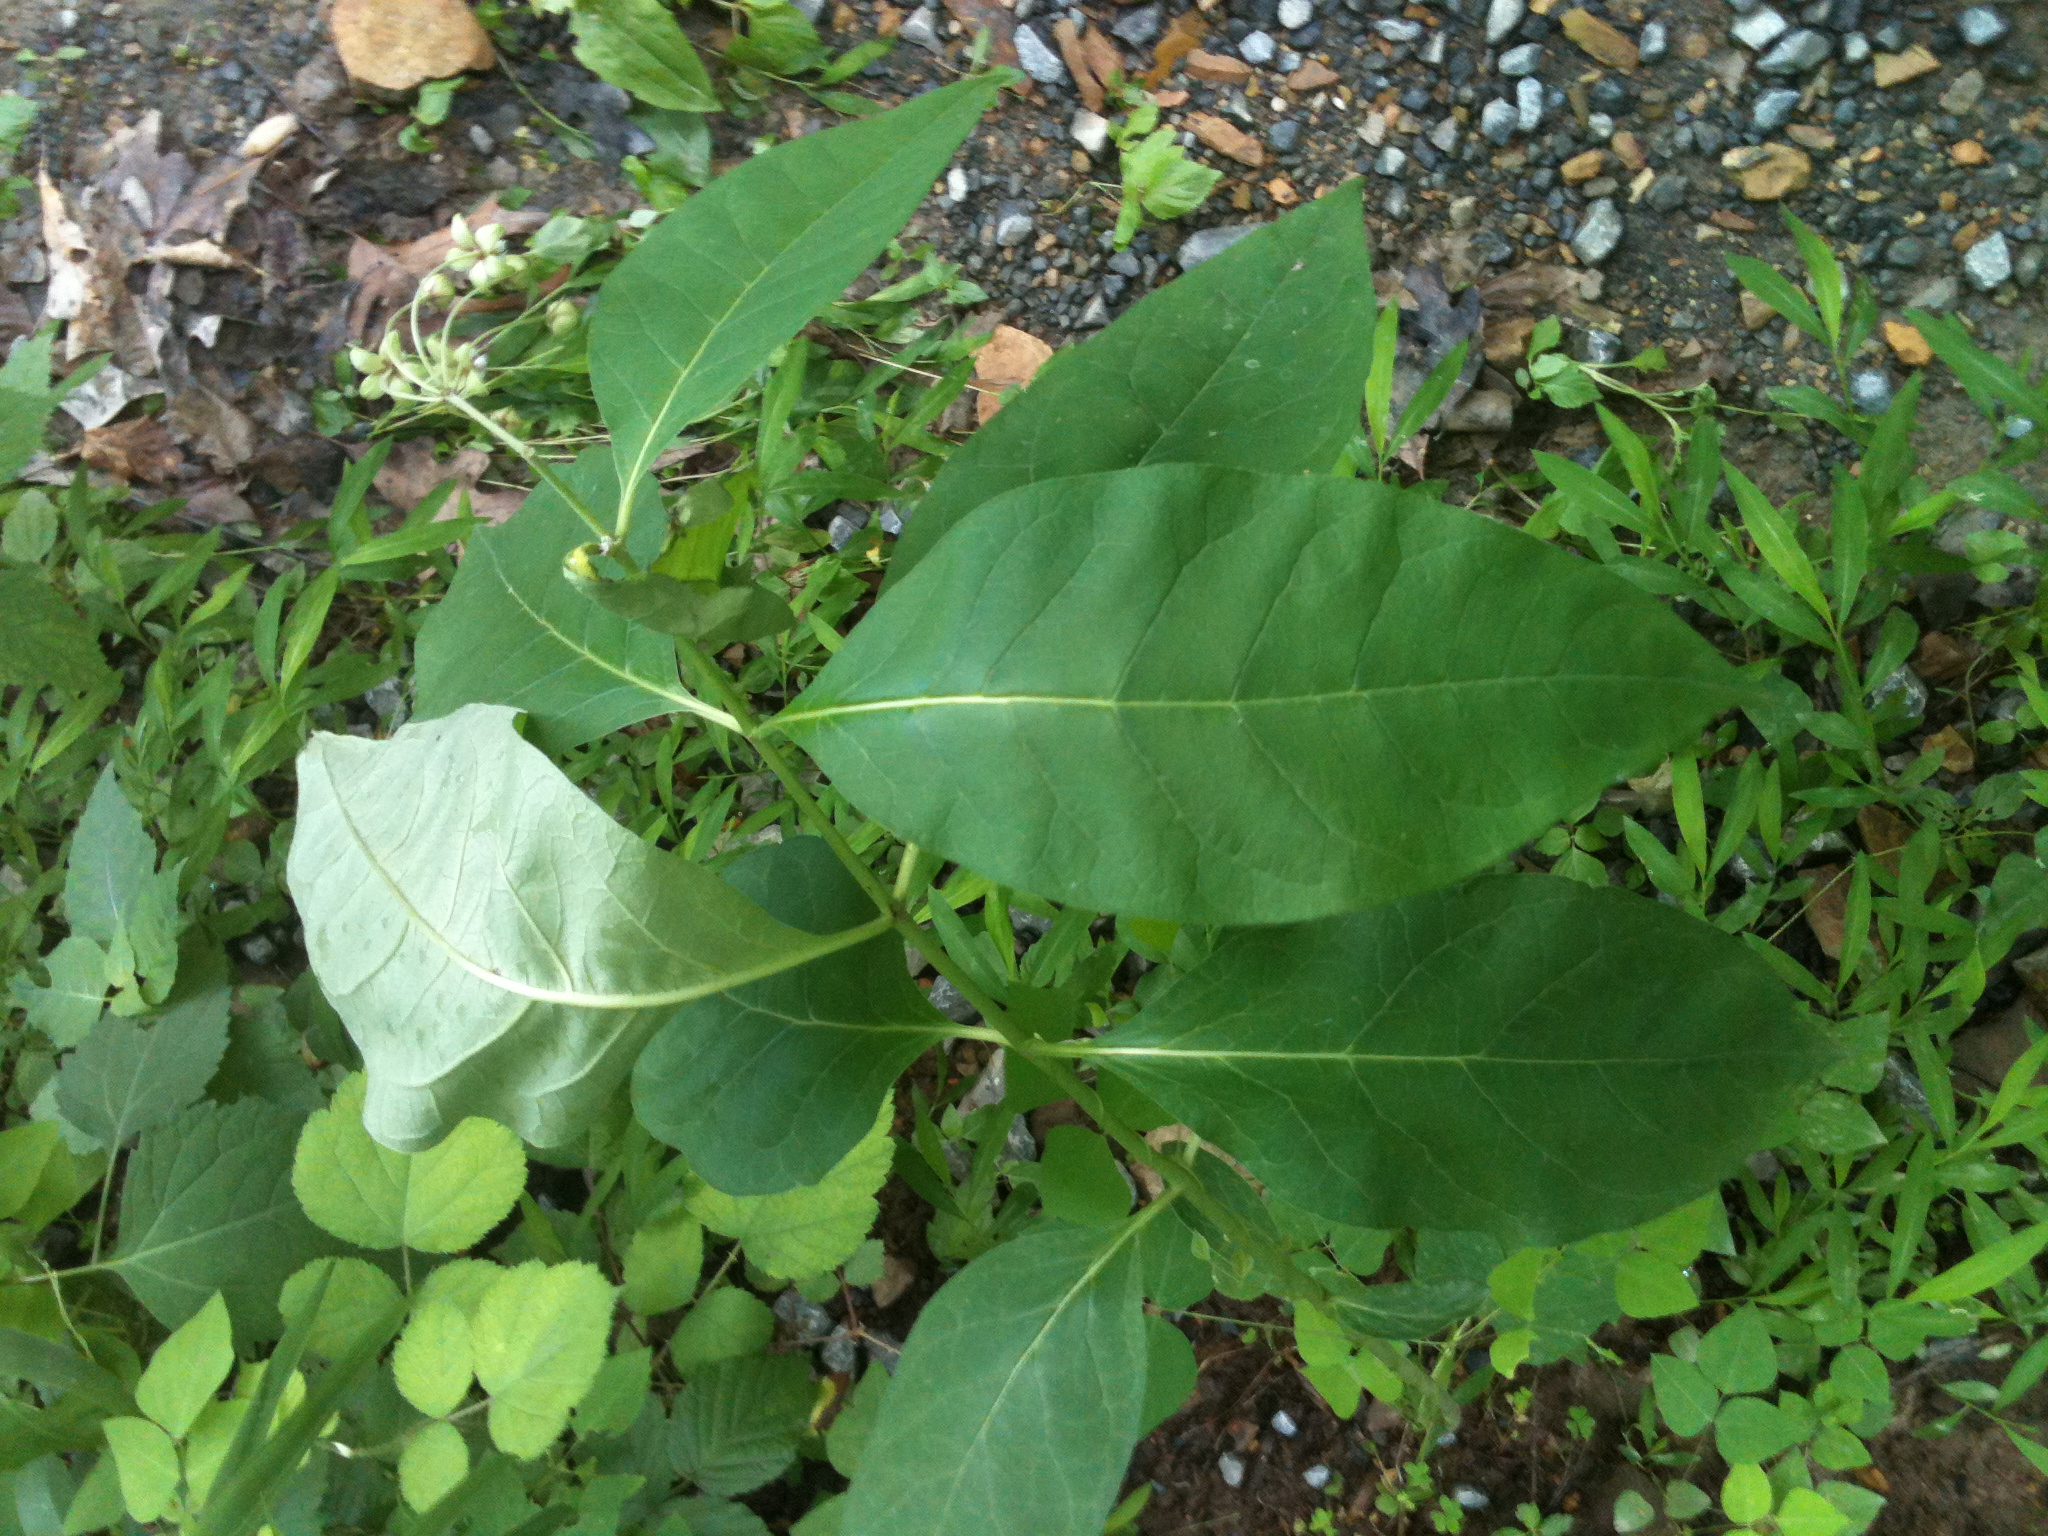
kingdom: Plantae
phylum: Tracheophyta
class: Magnoliopsida
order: Gentianales
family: Apocynaceae
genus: Asclepias
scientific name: Asclepias exaltata
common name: Poke milkweed
